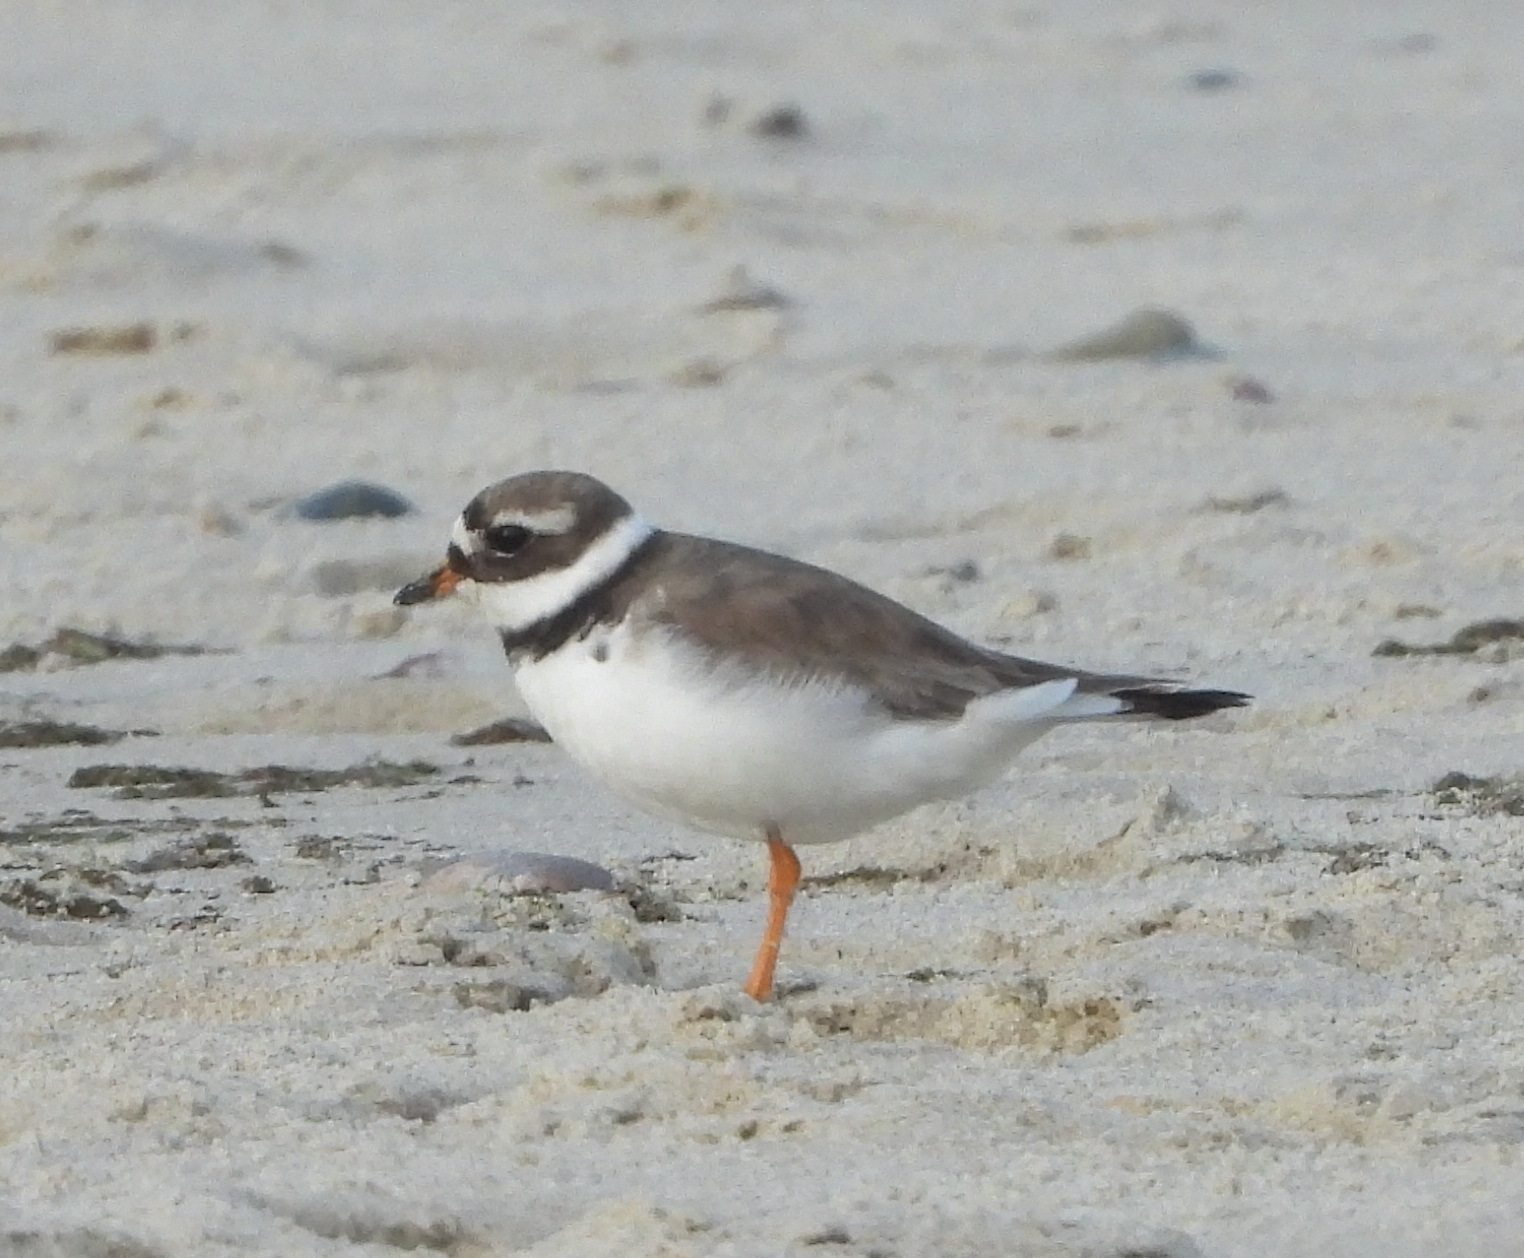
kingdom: Animalia
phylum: Chordata
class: Aves
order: Charadriiformes
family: Charadriidae
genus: Charadrius
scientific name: Charadrius hiaticula
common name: Common ringed plover
